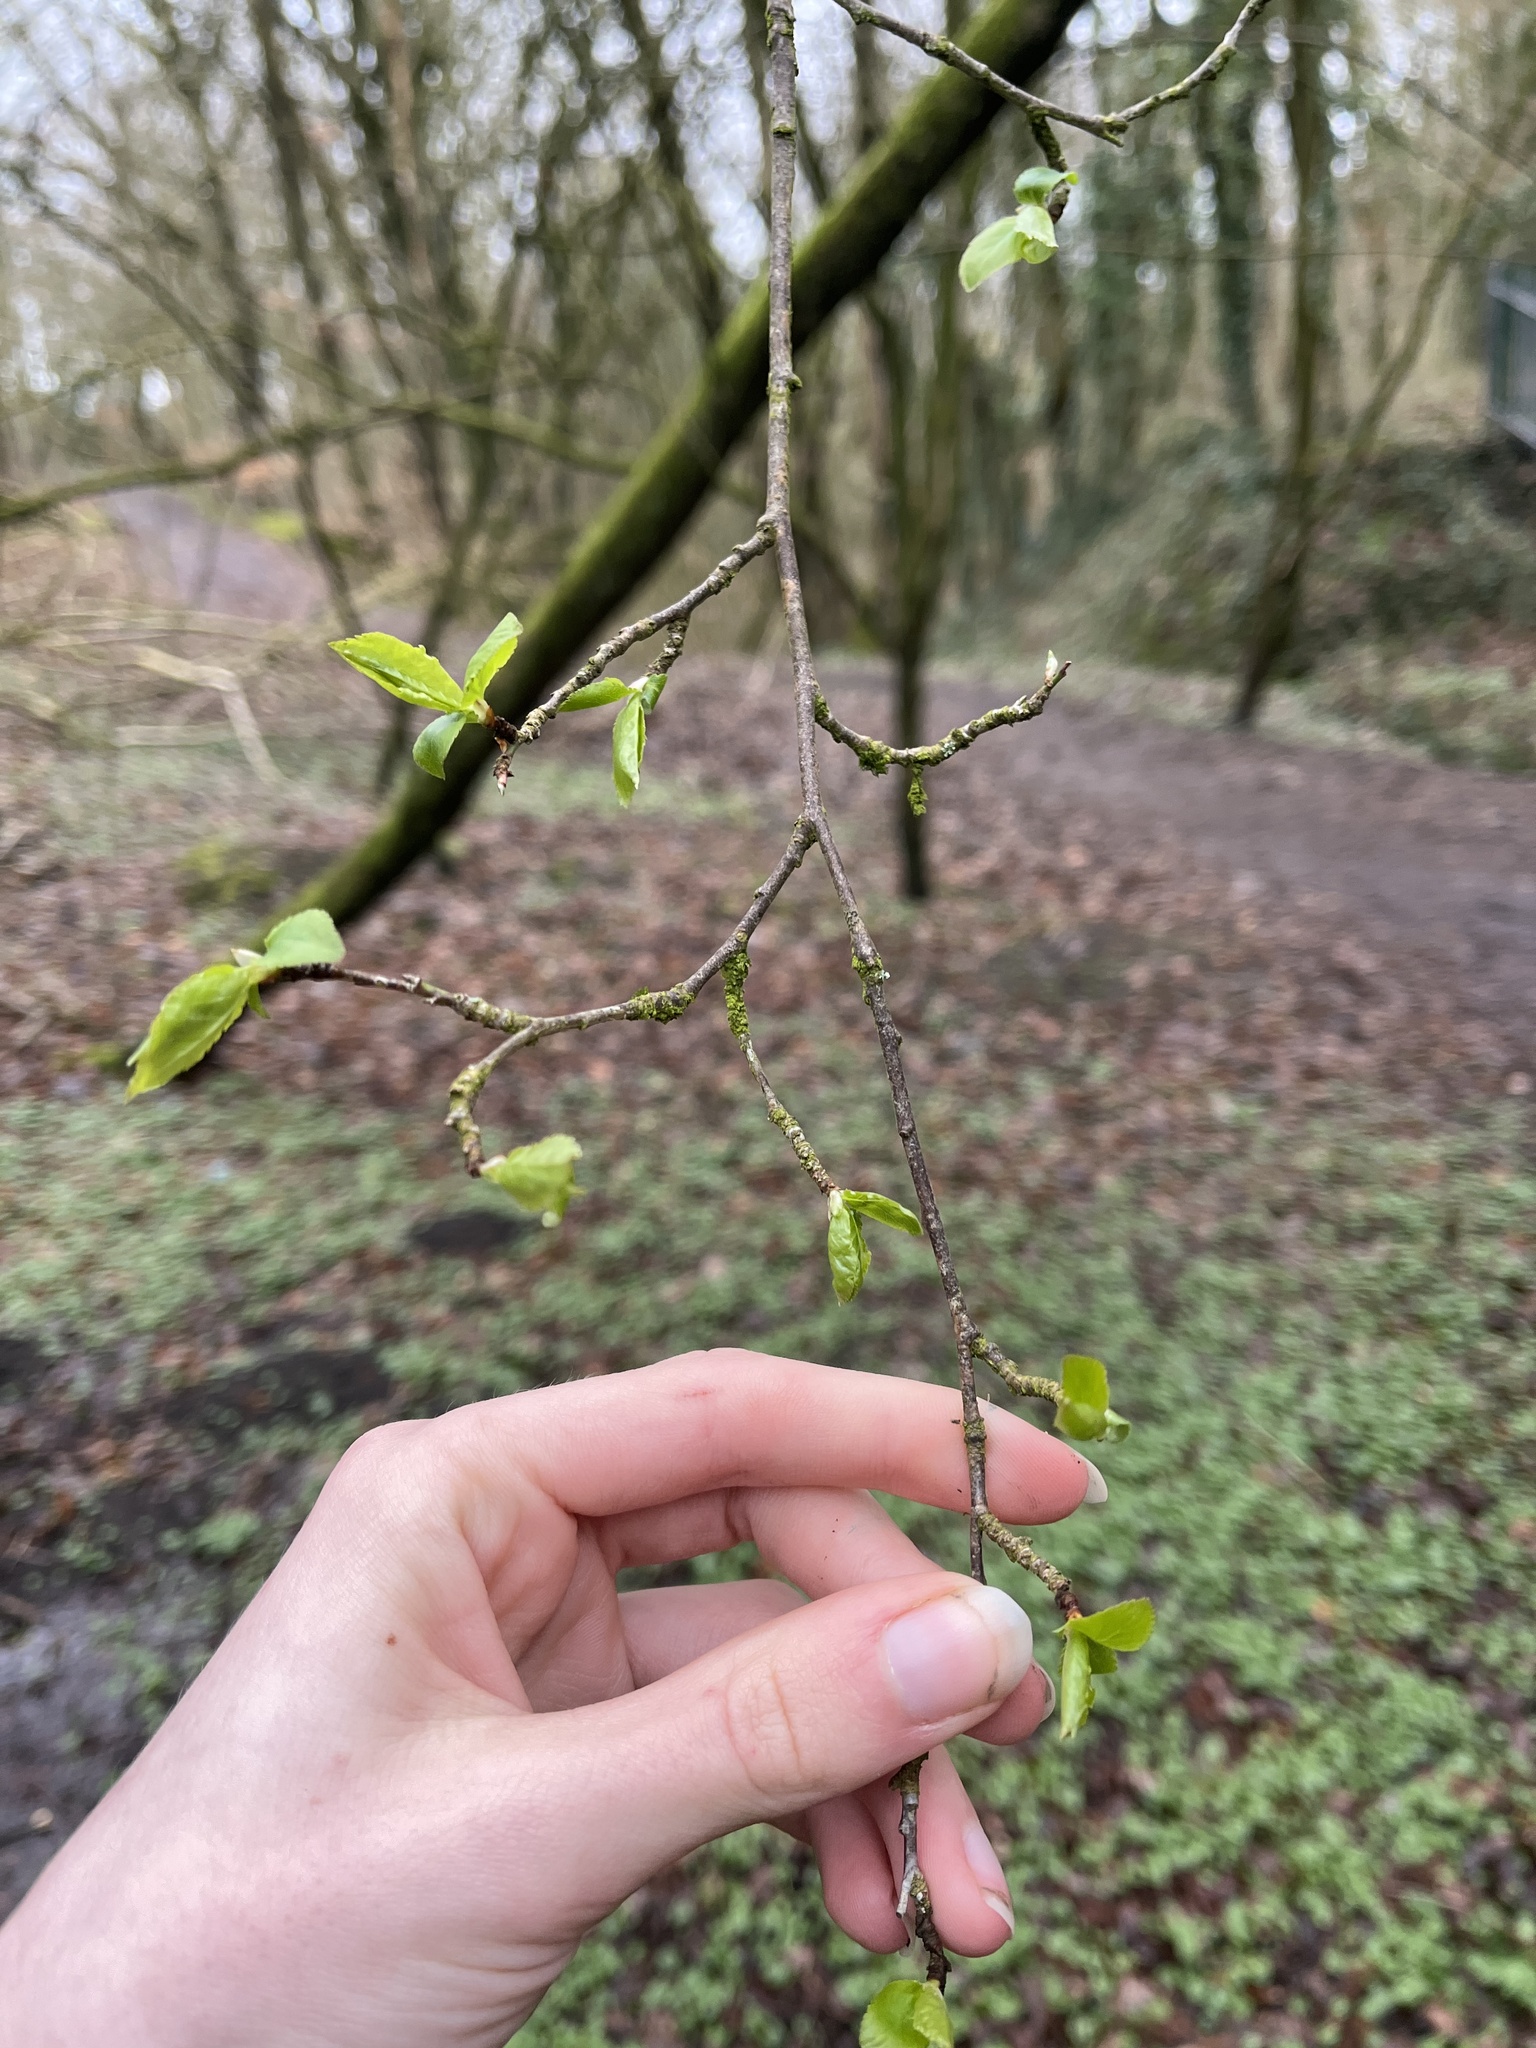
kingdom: Plantae
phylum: Tracheophyta
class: Magnoliopsida
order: Rosales
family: Rosaceae
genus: Prunus
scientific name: Prunus cerasifera
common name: Cherry plum
